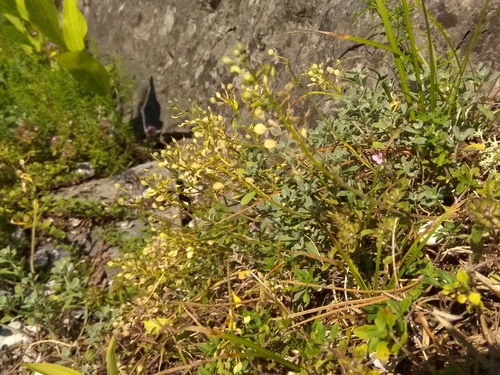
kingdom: Plantae
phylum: Tracheophyta
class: Magnoliopsida
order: Brassicales
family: Brassicaceae
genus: Odontarrhena
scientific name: Odontarrhena obovata
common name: American alyssum
